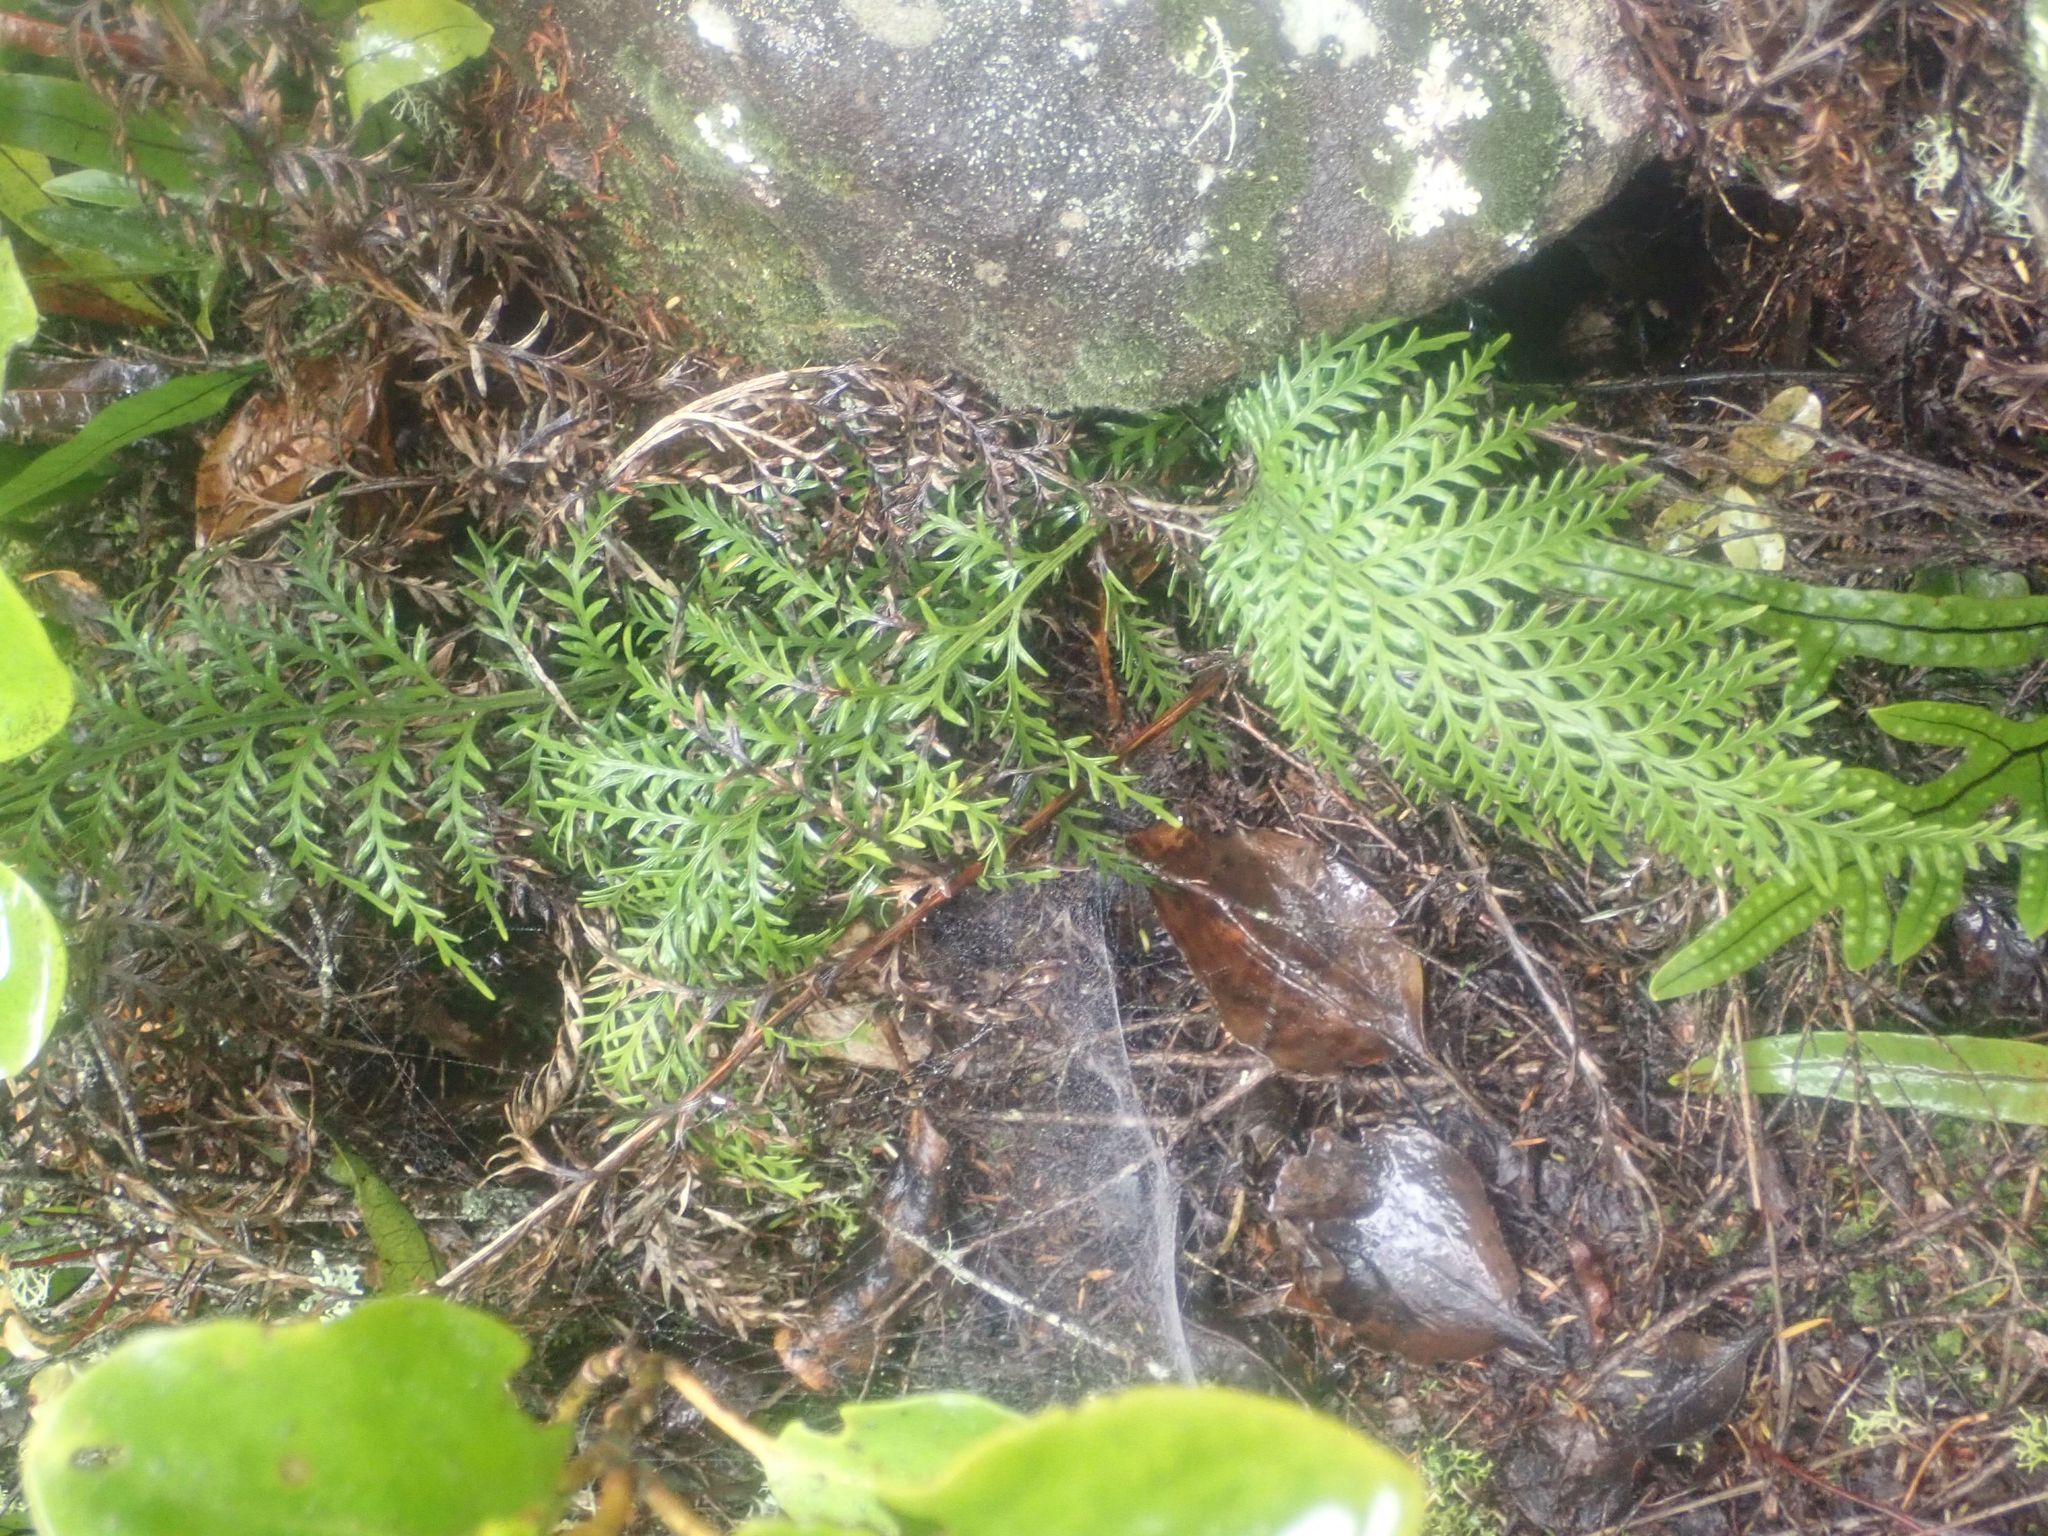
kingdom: Plantae
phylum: Tracheophyta
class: Polypodiopsida
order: Polypodiales
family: Aspleniaceae
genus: Asplenium
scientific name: Asplenium appendiculatum
